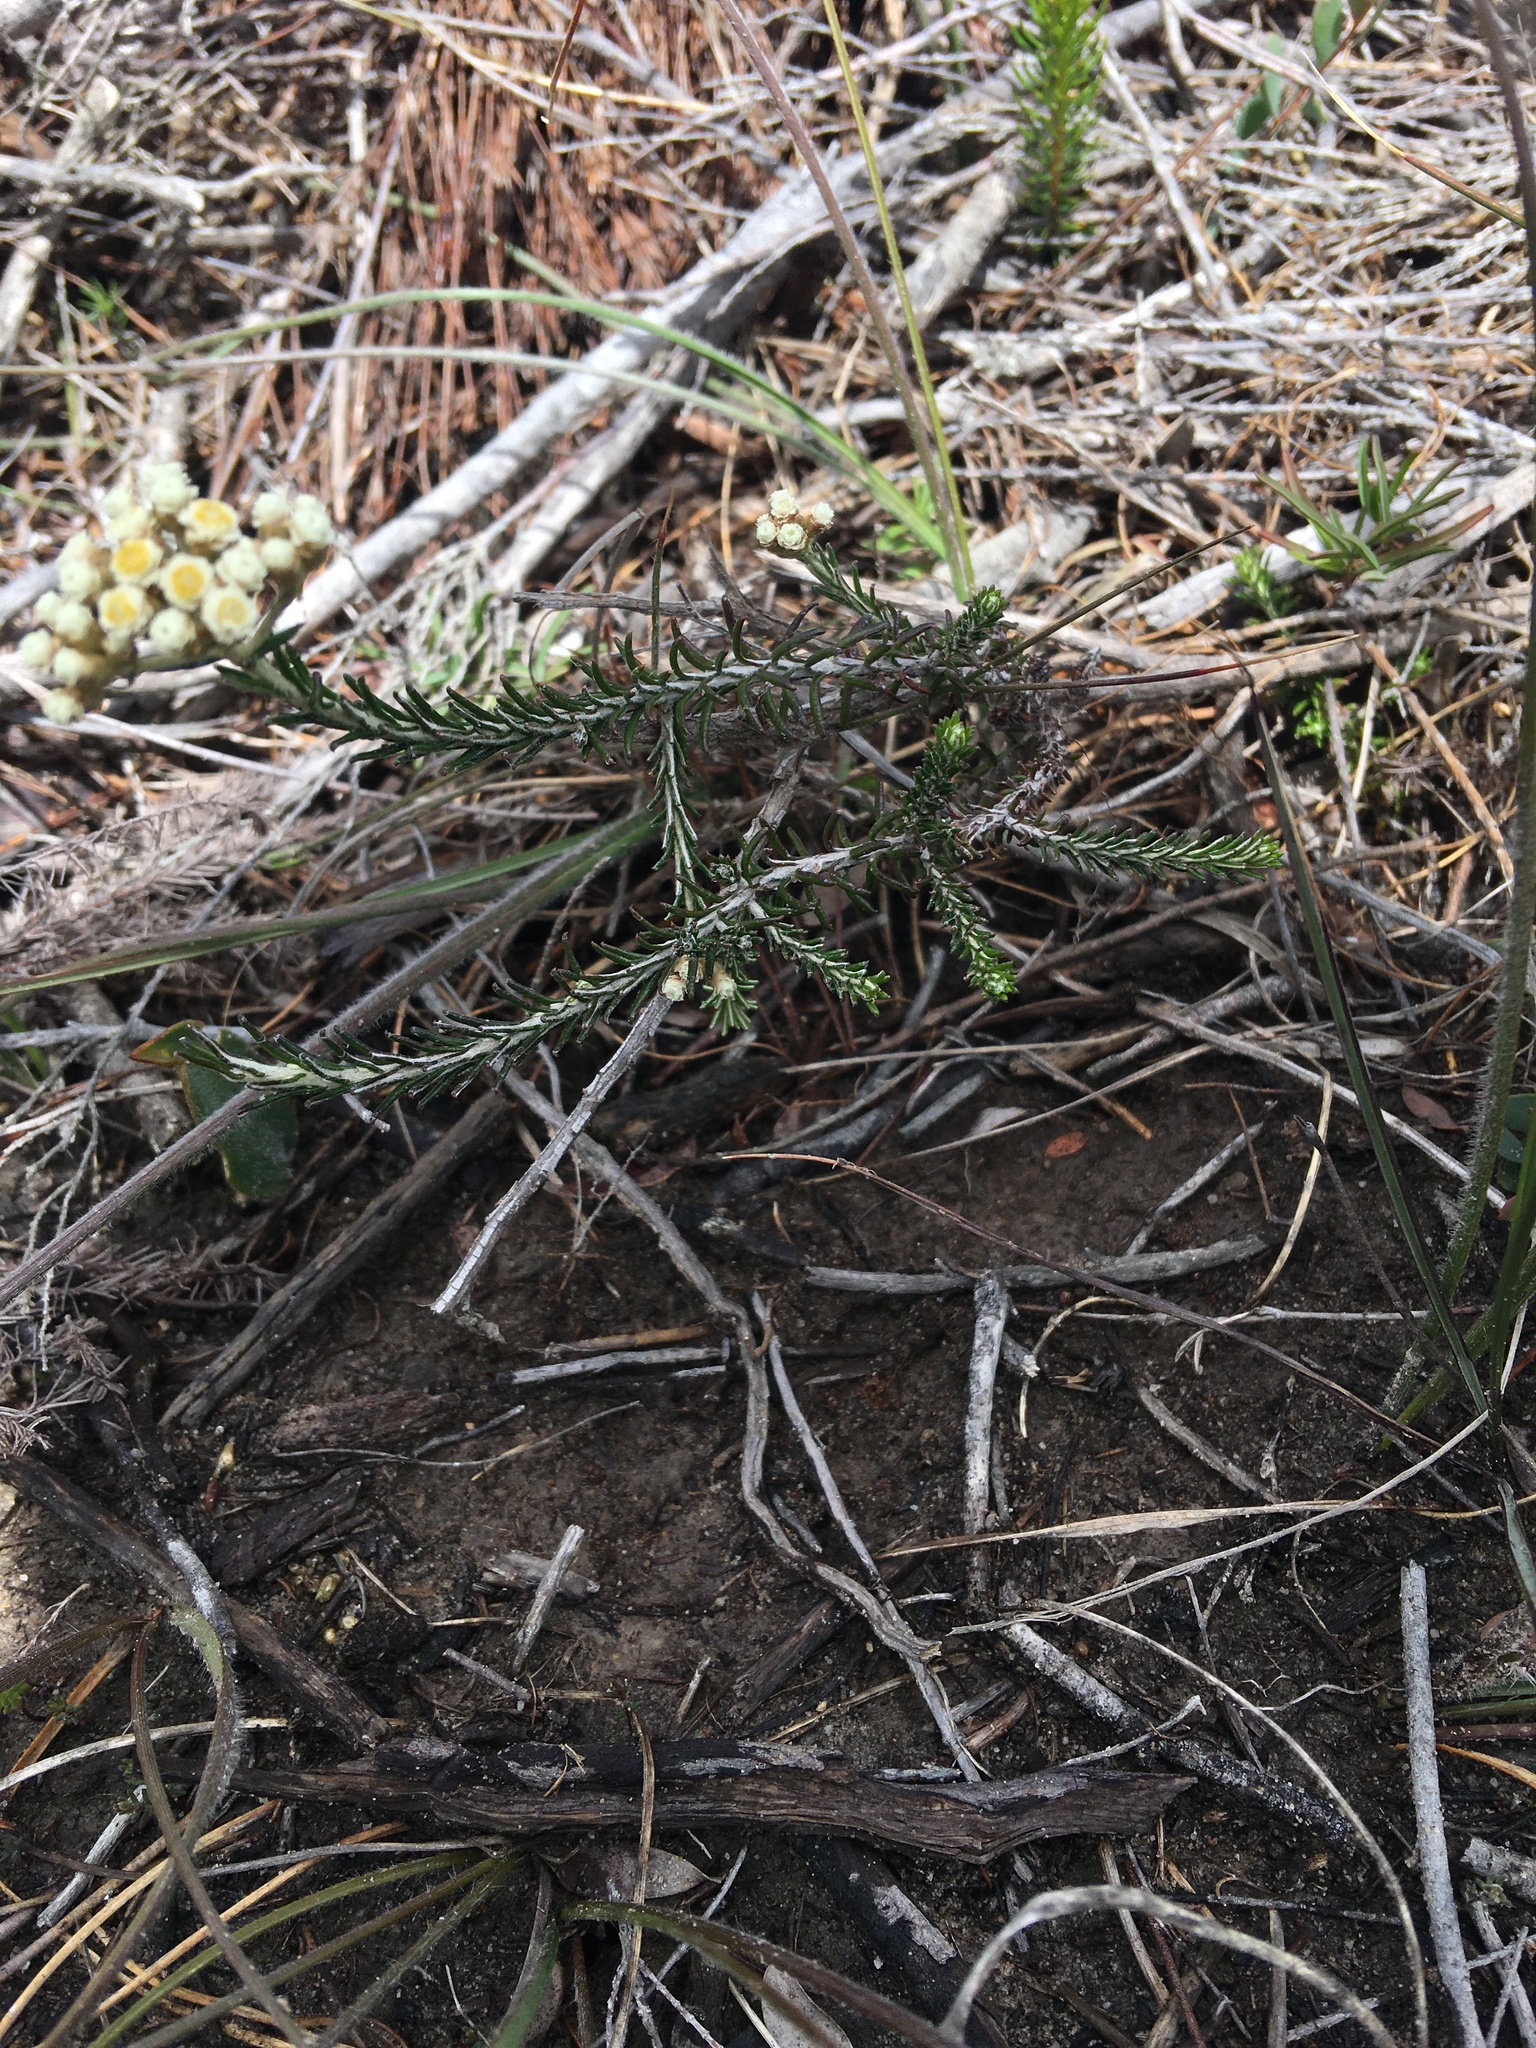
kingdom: Plantae
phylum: Tracheophyta
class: Magnoliopsida
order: Asterales
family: Asteraceae
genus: Helichrysum
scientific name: Helichrysum teretifolium
